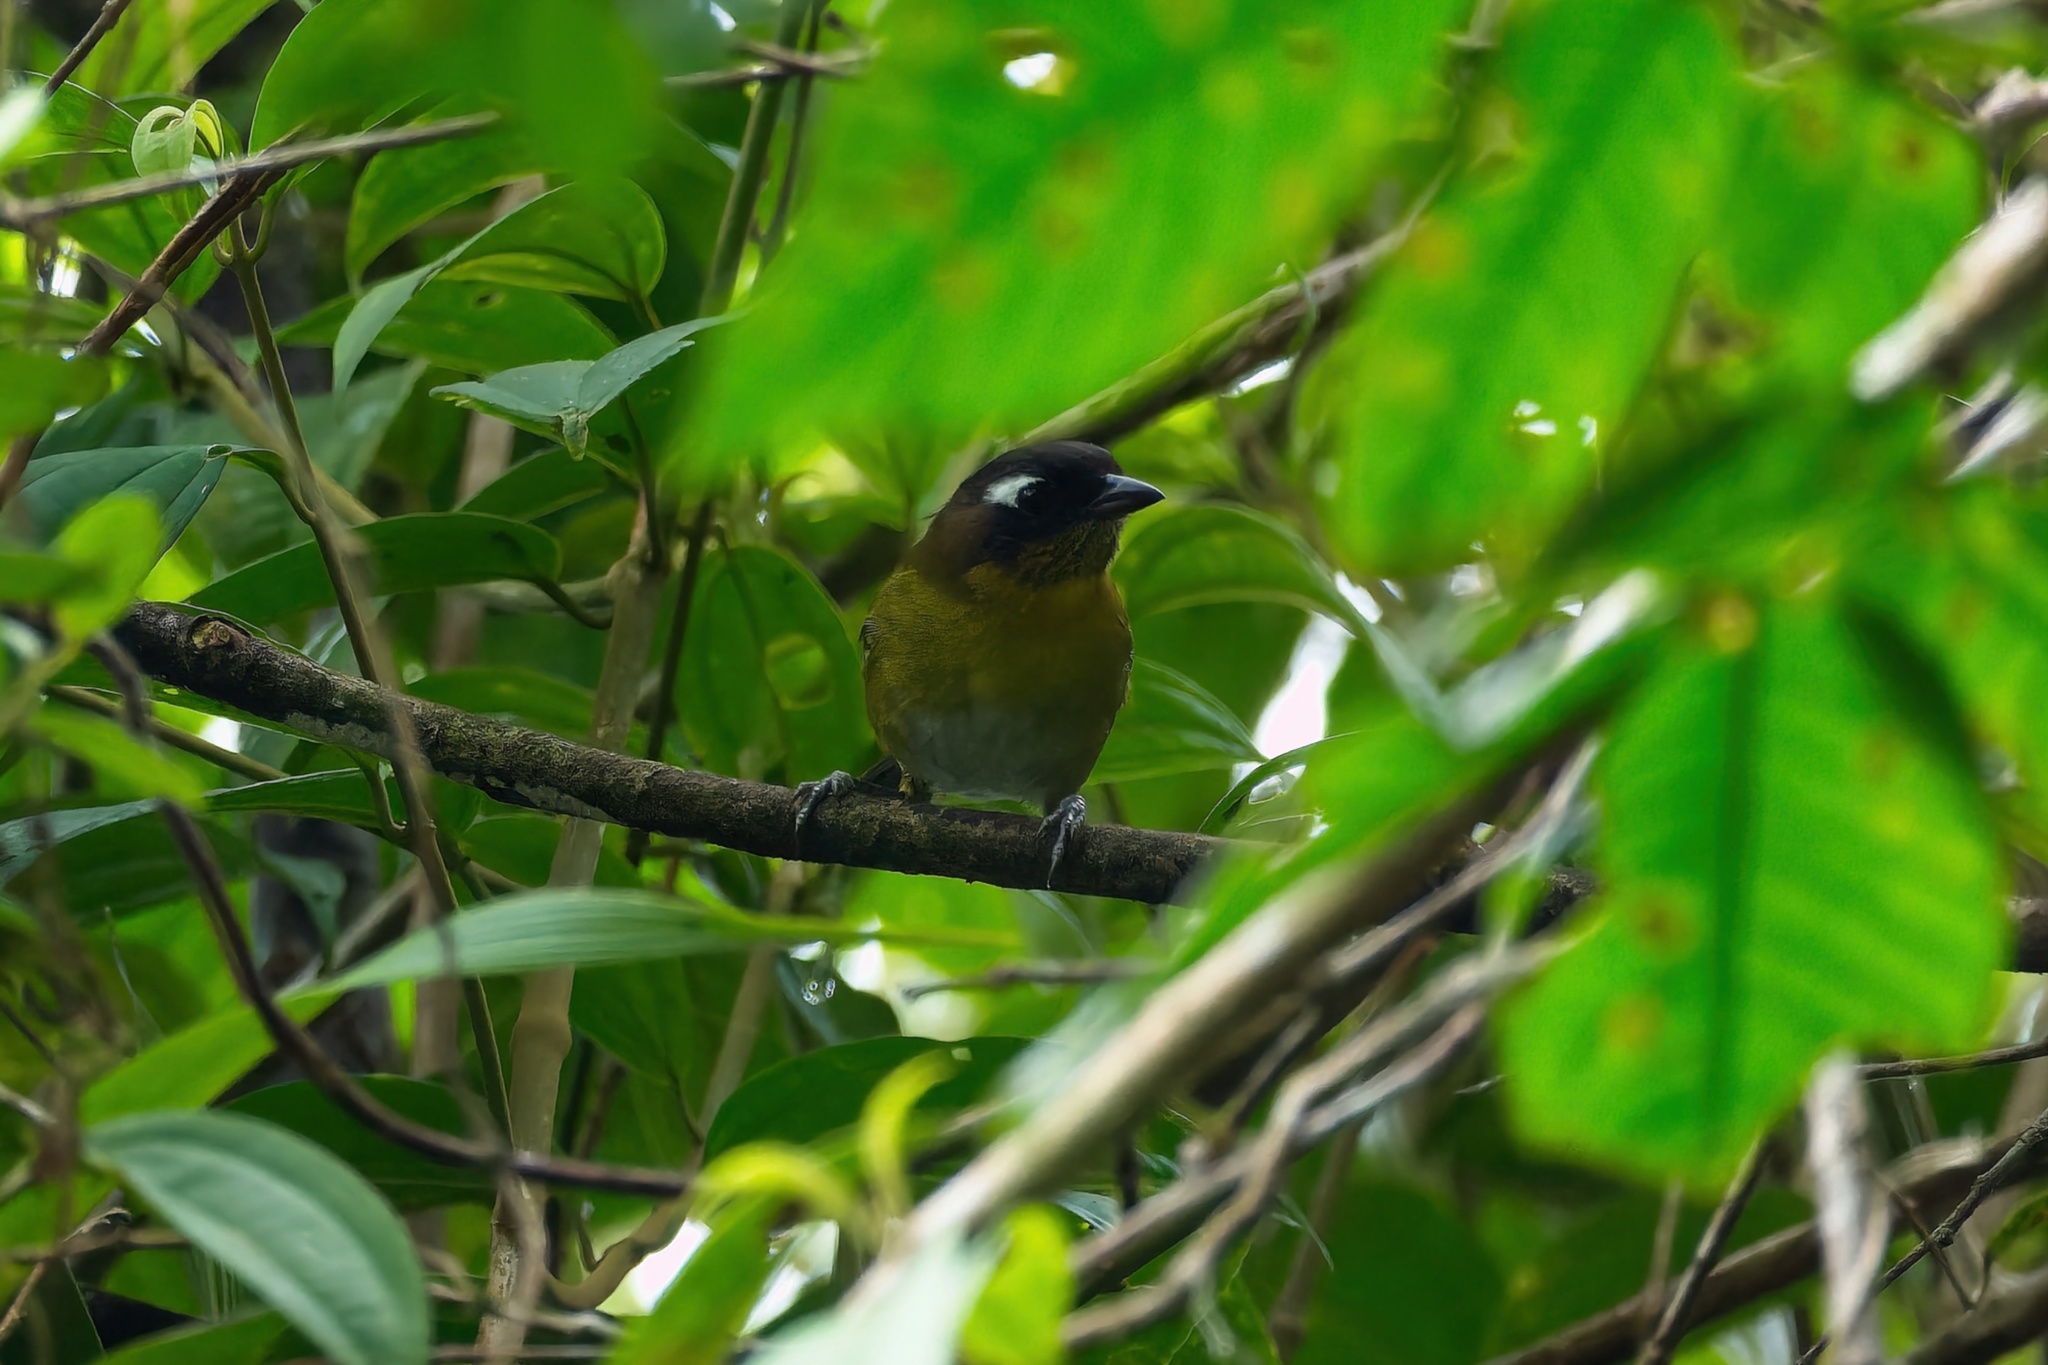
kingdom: Animalia
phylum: Chordata
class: Aves
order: Passeriformes
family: Passerellidae
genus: Chlorospingus
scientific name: Chlorospingus flavopectus
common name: Common chlorospingus
